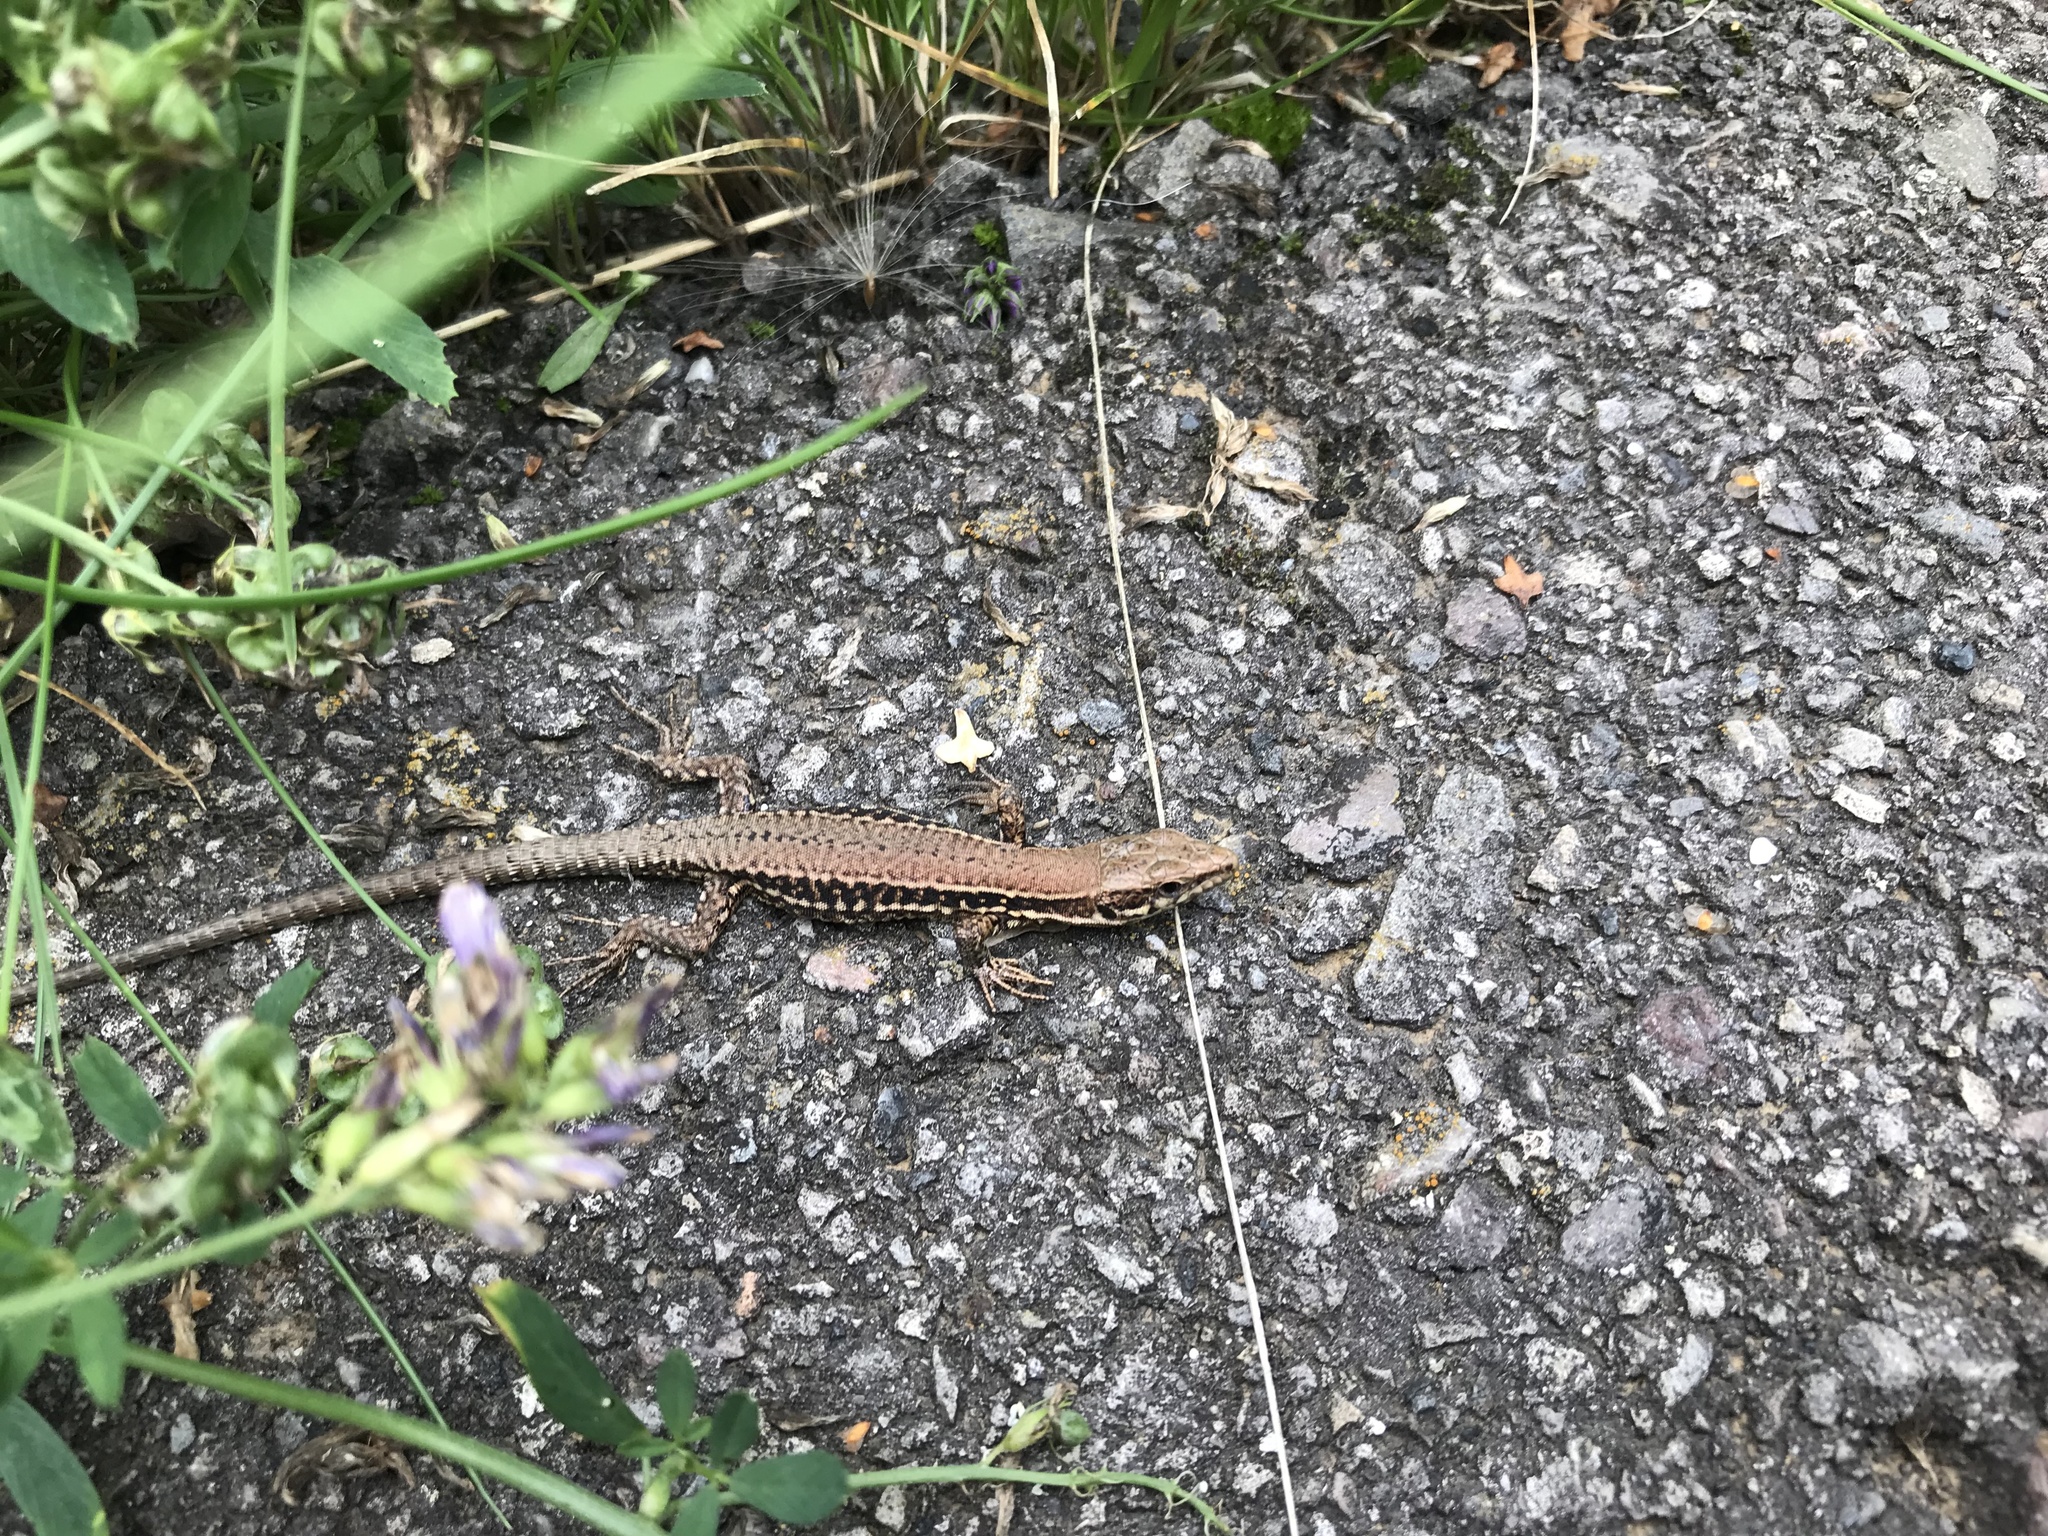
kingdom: Animalia
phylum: Chordata
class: Squamata
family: Lacertidae
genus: Podarcis
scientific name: Podarcis muralis
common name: Common wall lizard
